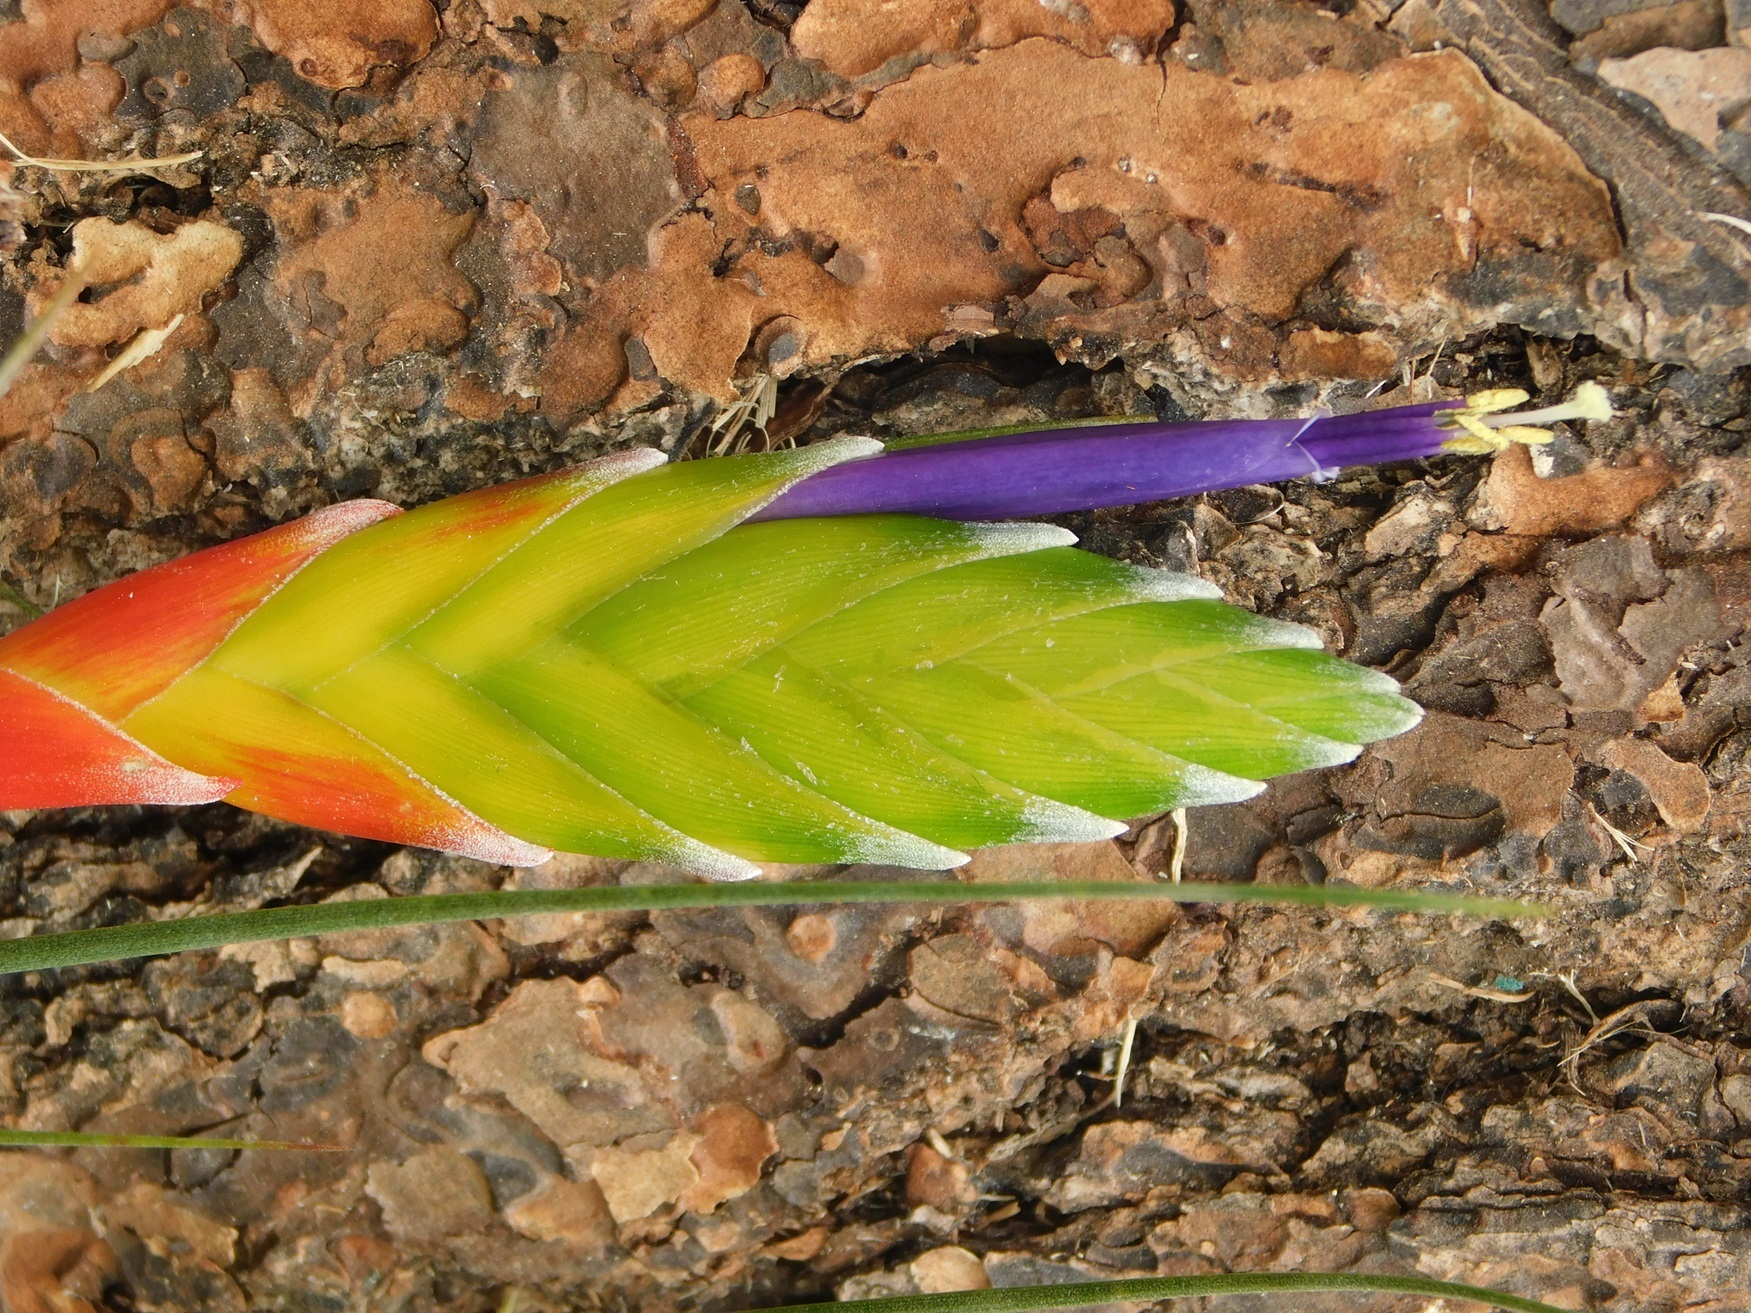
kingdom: Plantae
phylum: Tracheophyta
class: Liliopsida
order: Poales
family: Bromeliaceae
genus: Tillandsia
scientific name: Tillandsia tricolor
